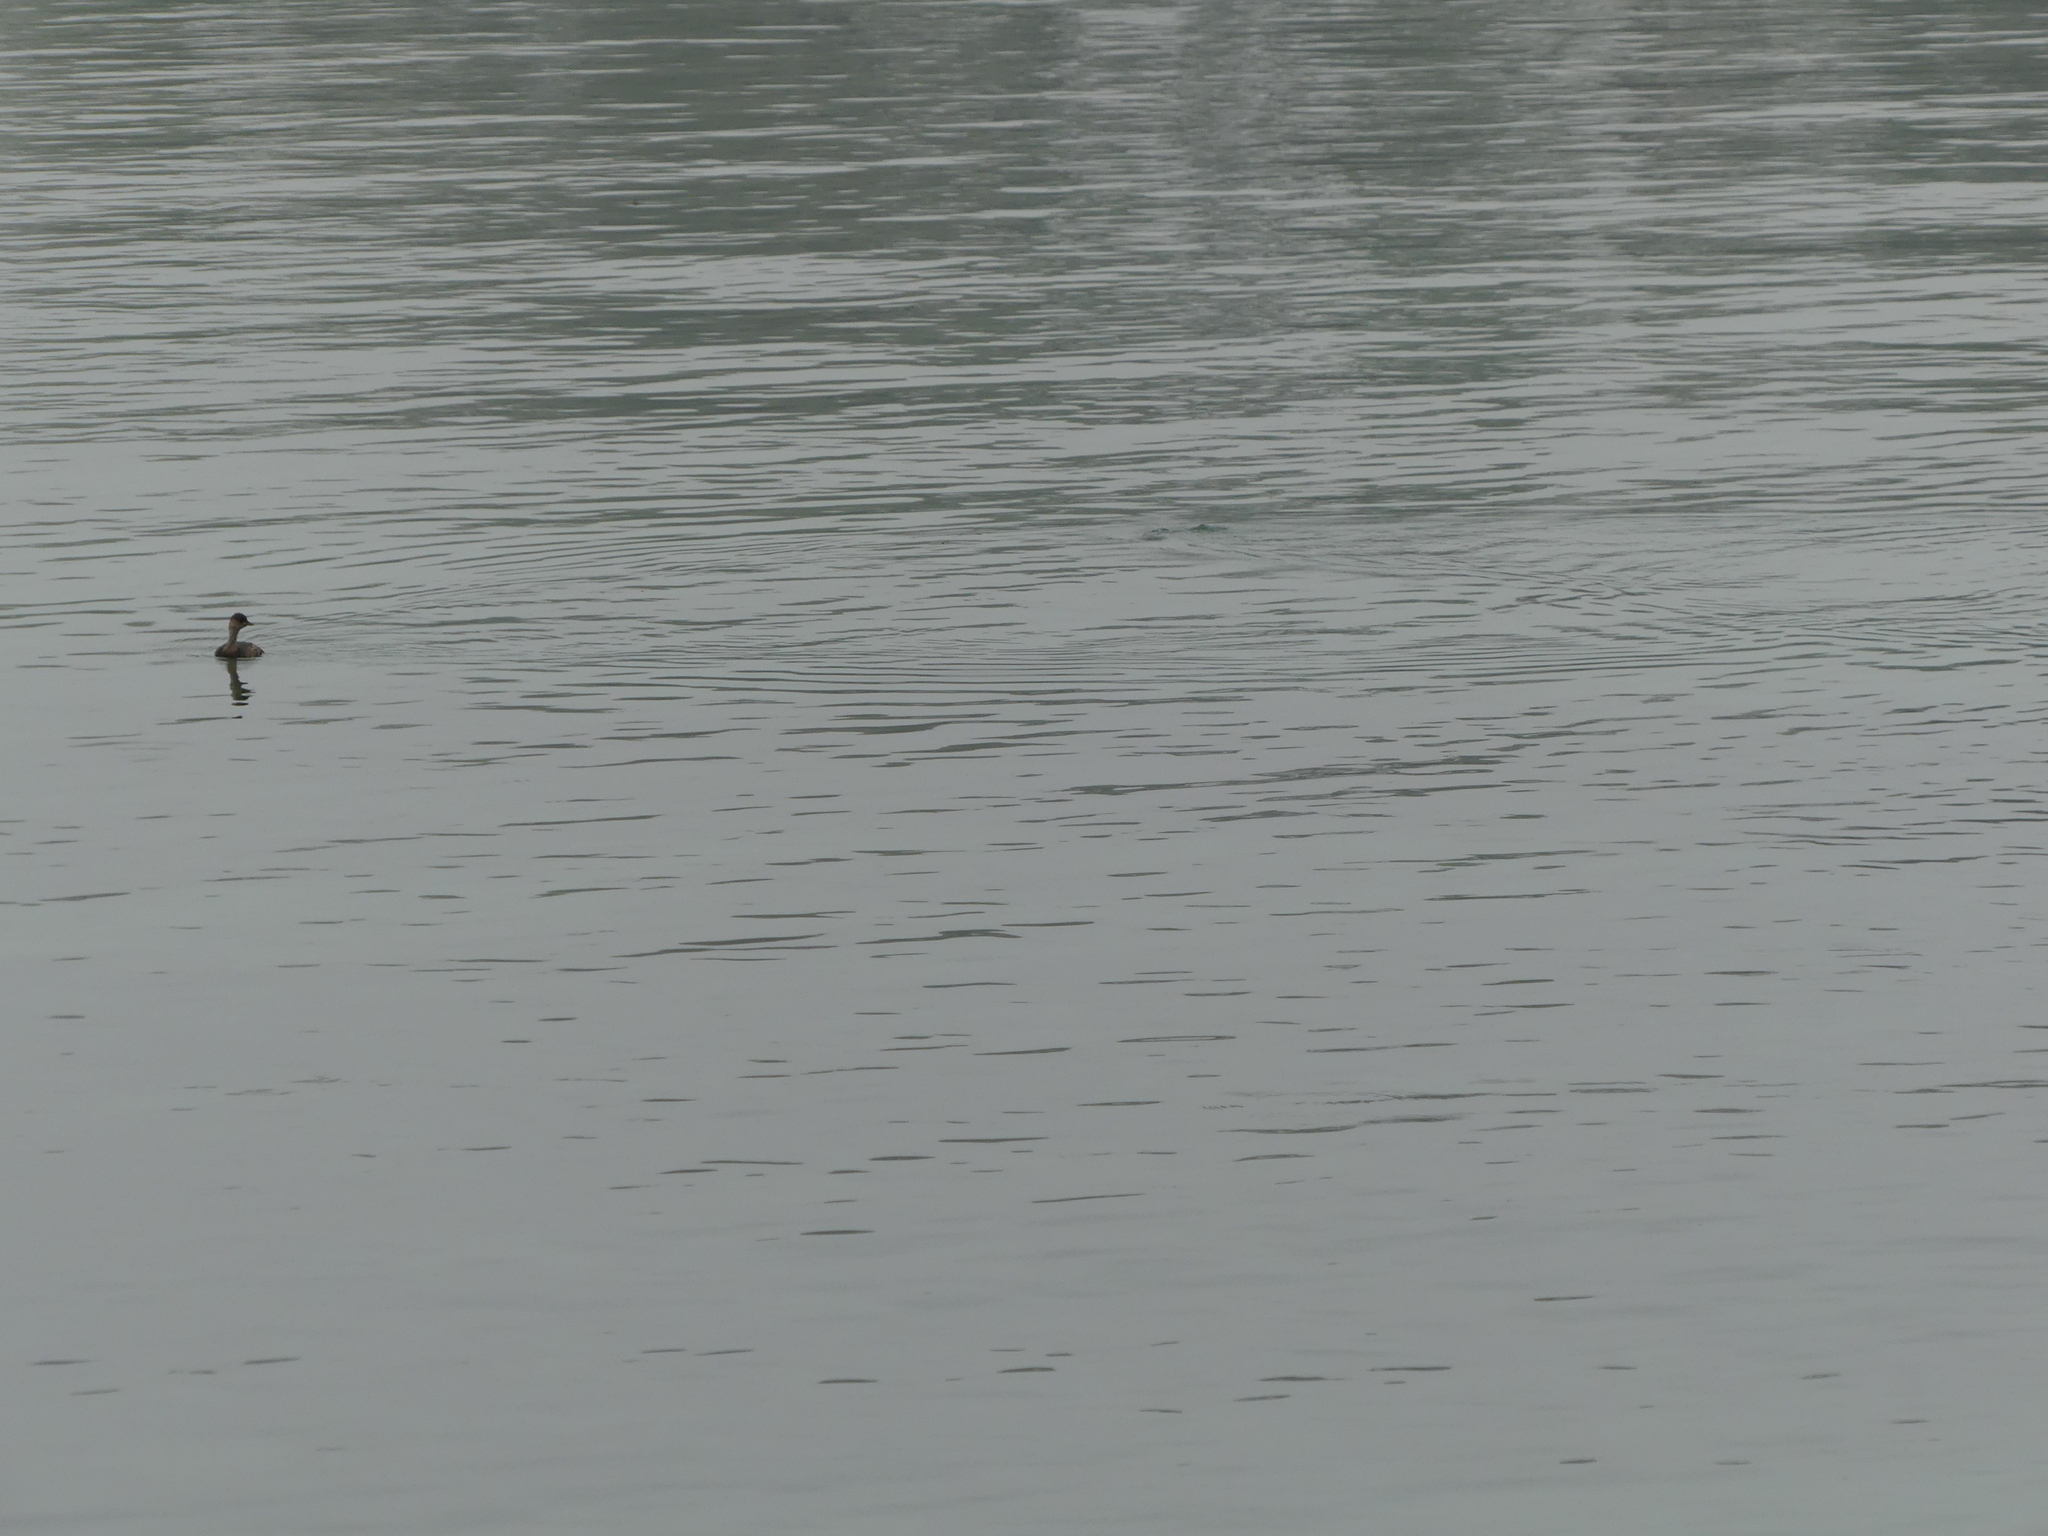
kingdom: Animalia
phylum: Chordata
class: Aves
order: Podicipediformes
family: Podicipedidae
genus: Tachybaptus
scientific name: Tachybaptus ruficollis
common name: Little grebe
